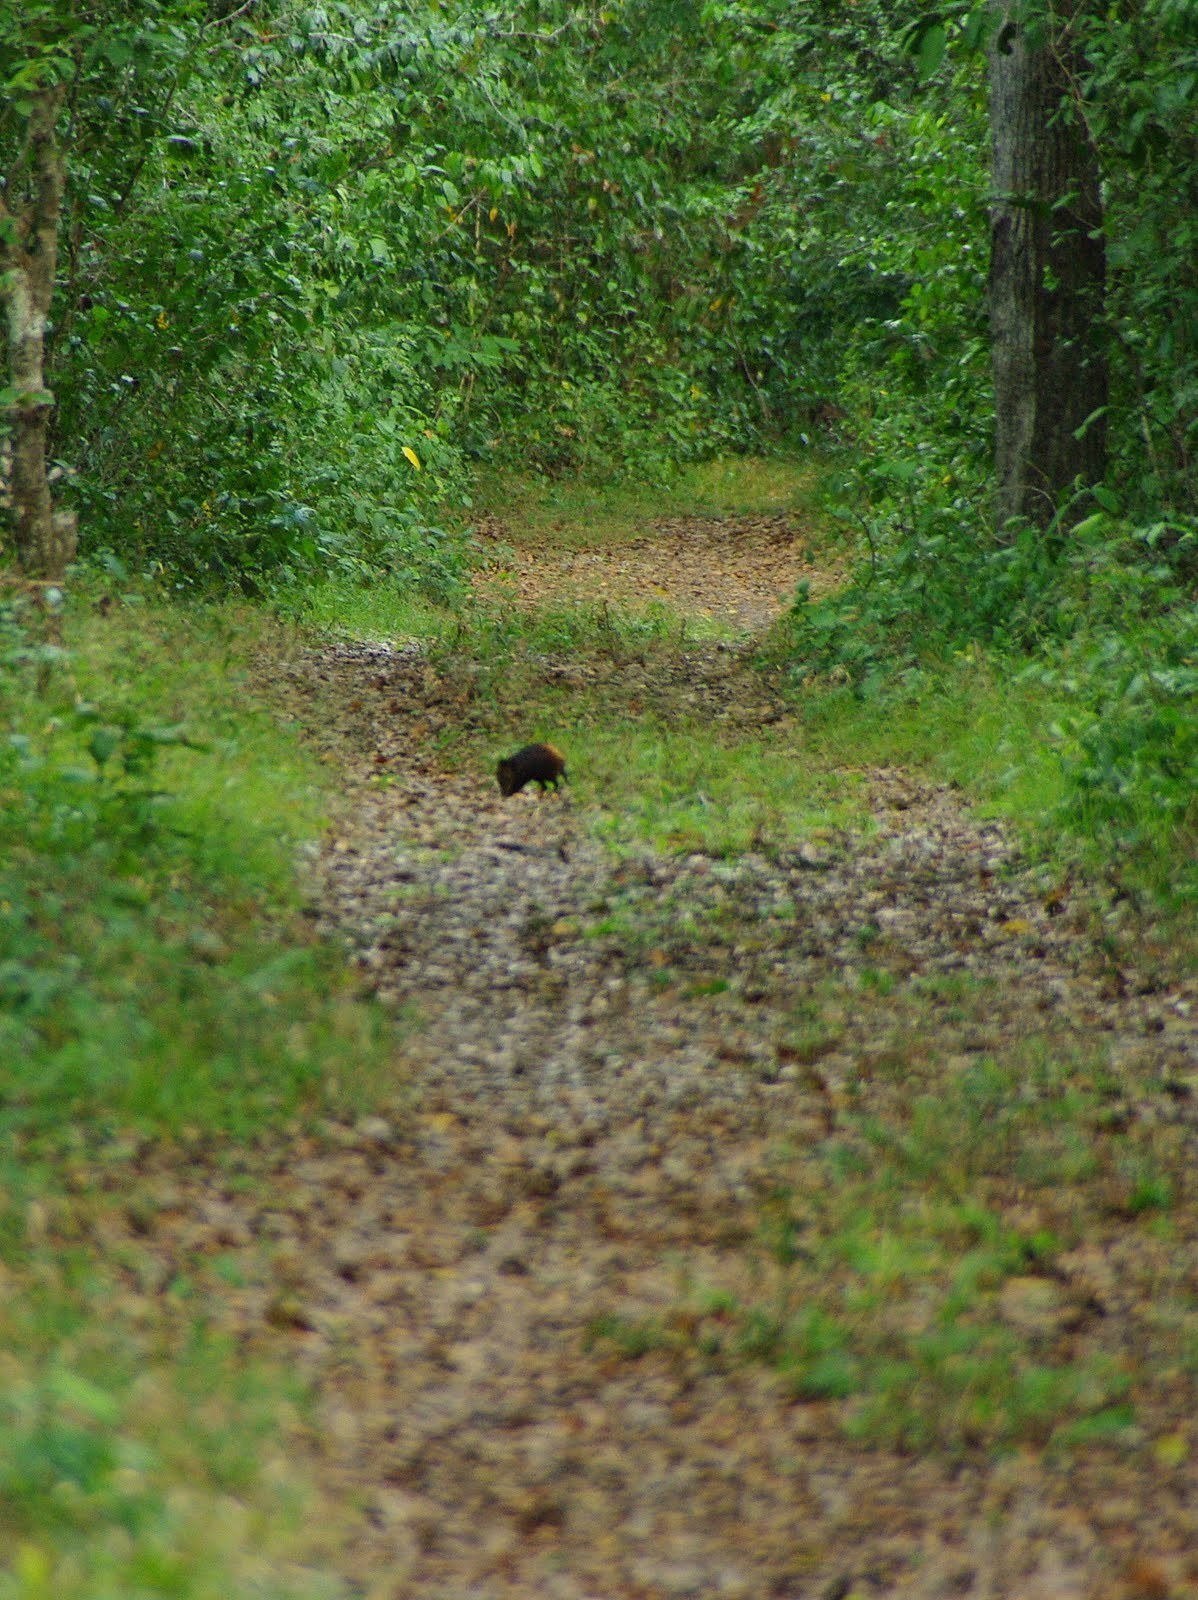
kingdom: Animalia
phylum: Chordata
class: Mammalia
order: Macroscelidea
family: Macroscelididae
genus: Rhynchocyon
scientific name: Rhynchocyon chrysopygus
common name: Golden-rumped elephant shrew
